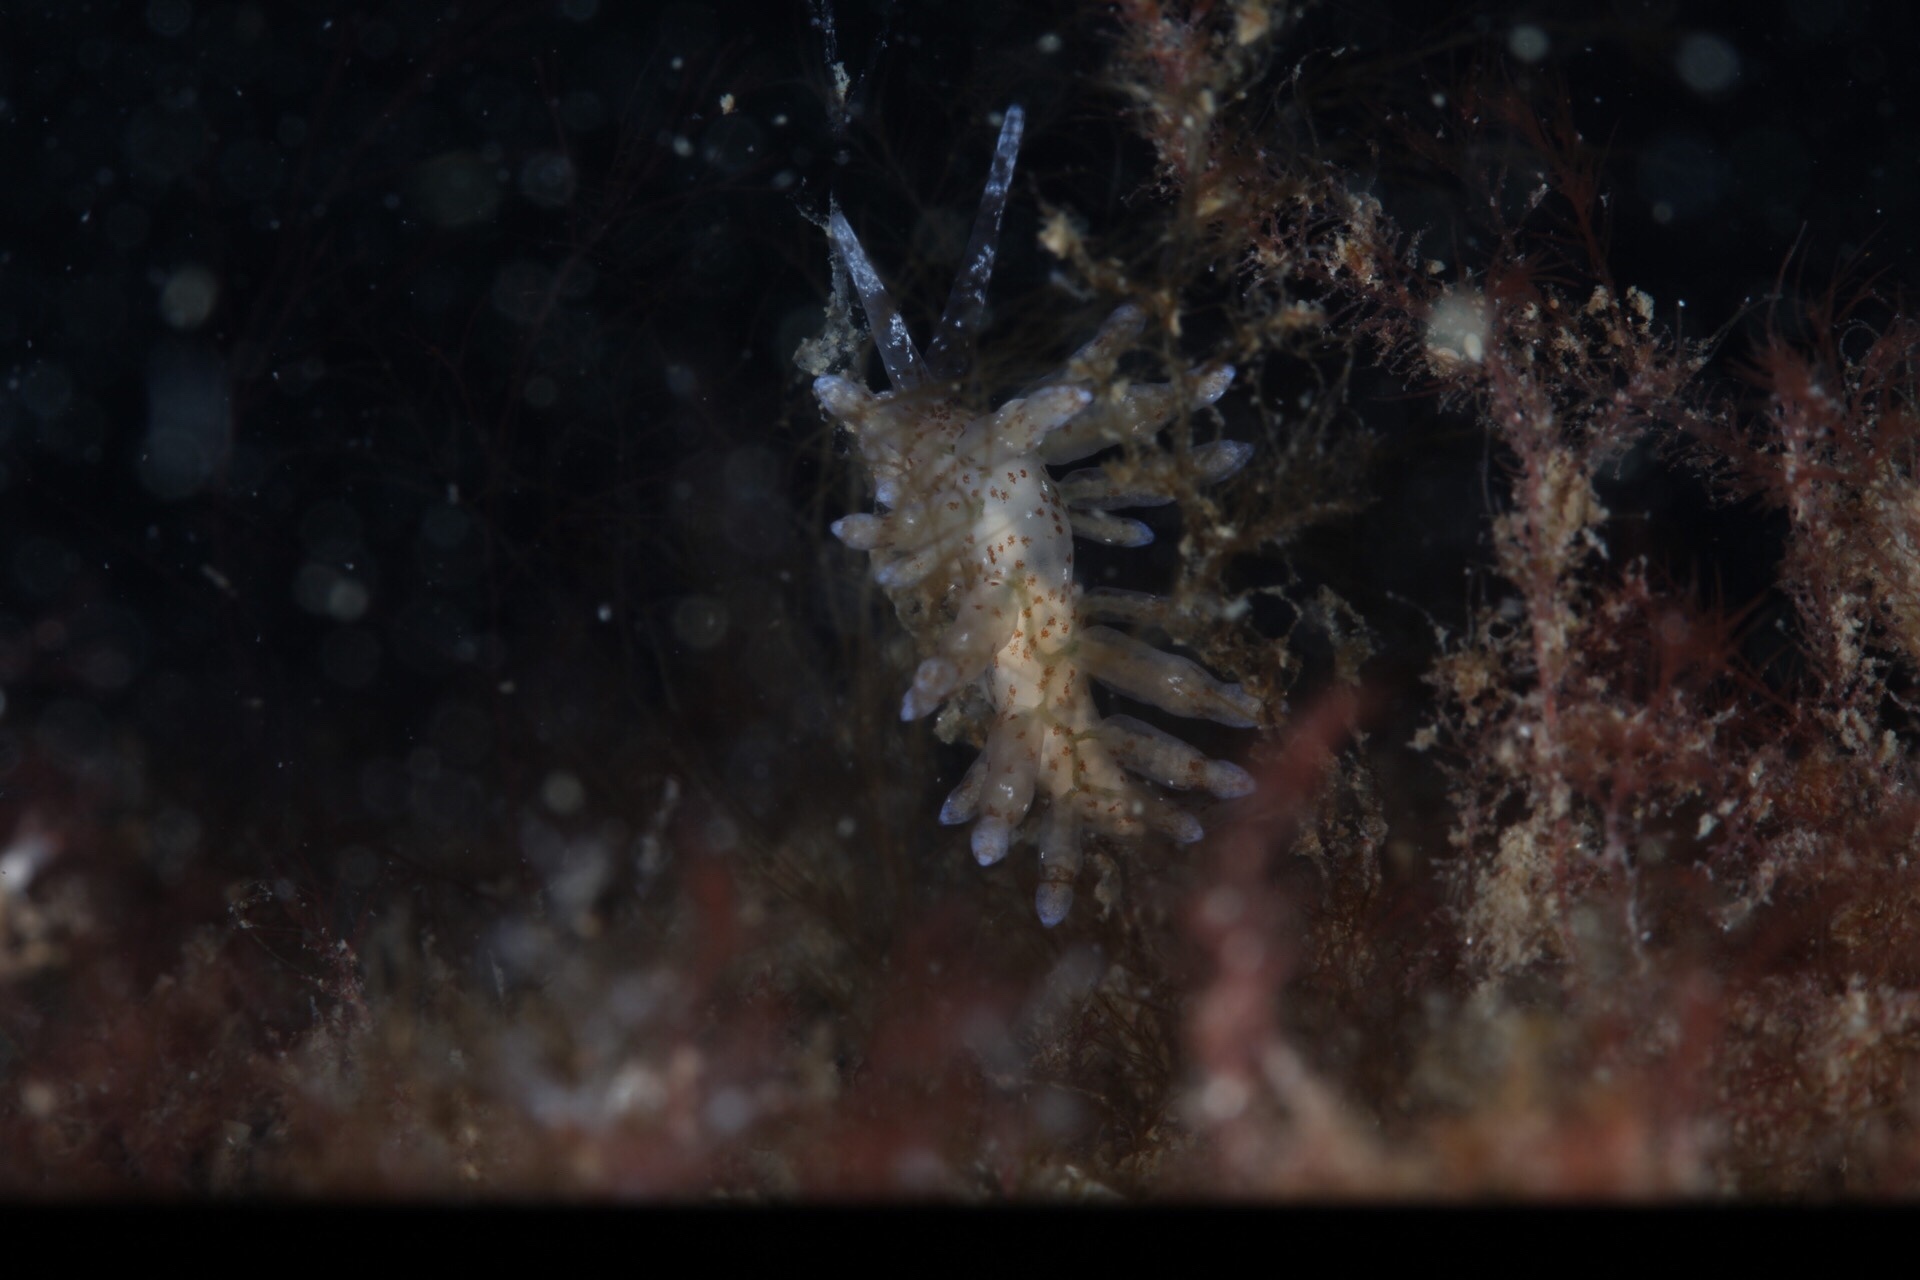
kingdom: Animalia
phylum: Mollusca
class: Gastropoda
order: Nudibranchia
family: Eubranchidae
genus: Eubranchus
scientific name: Eubranchus rupium
